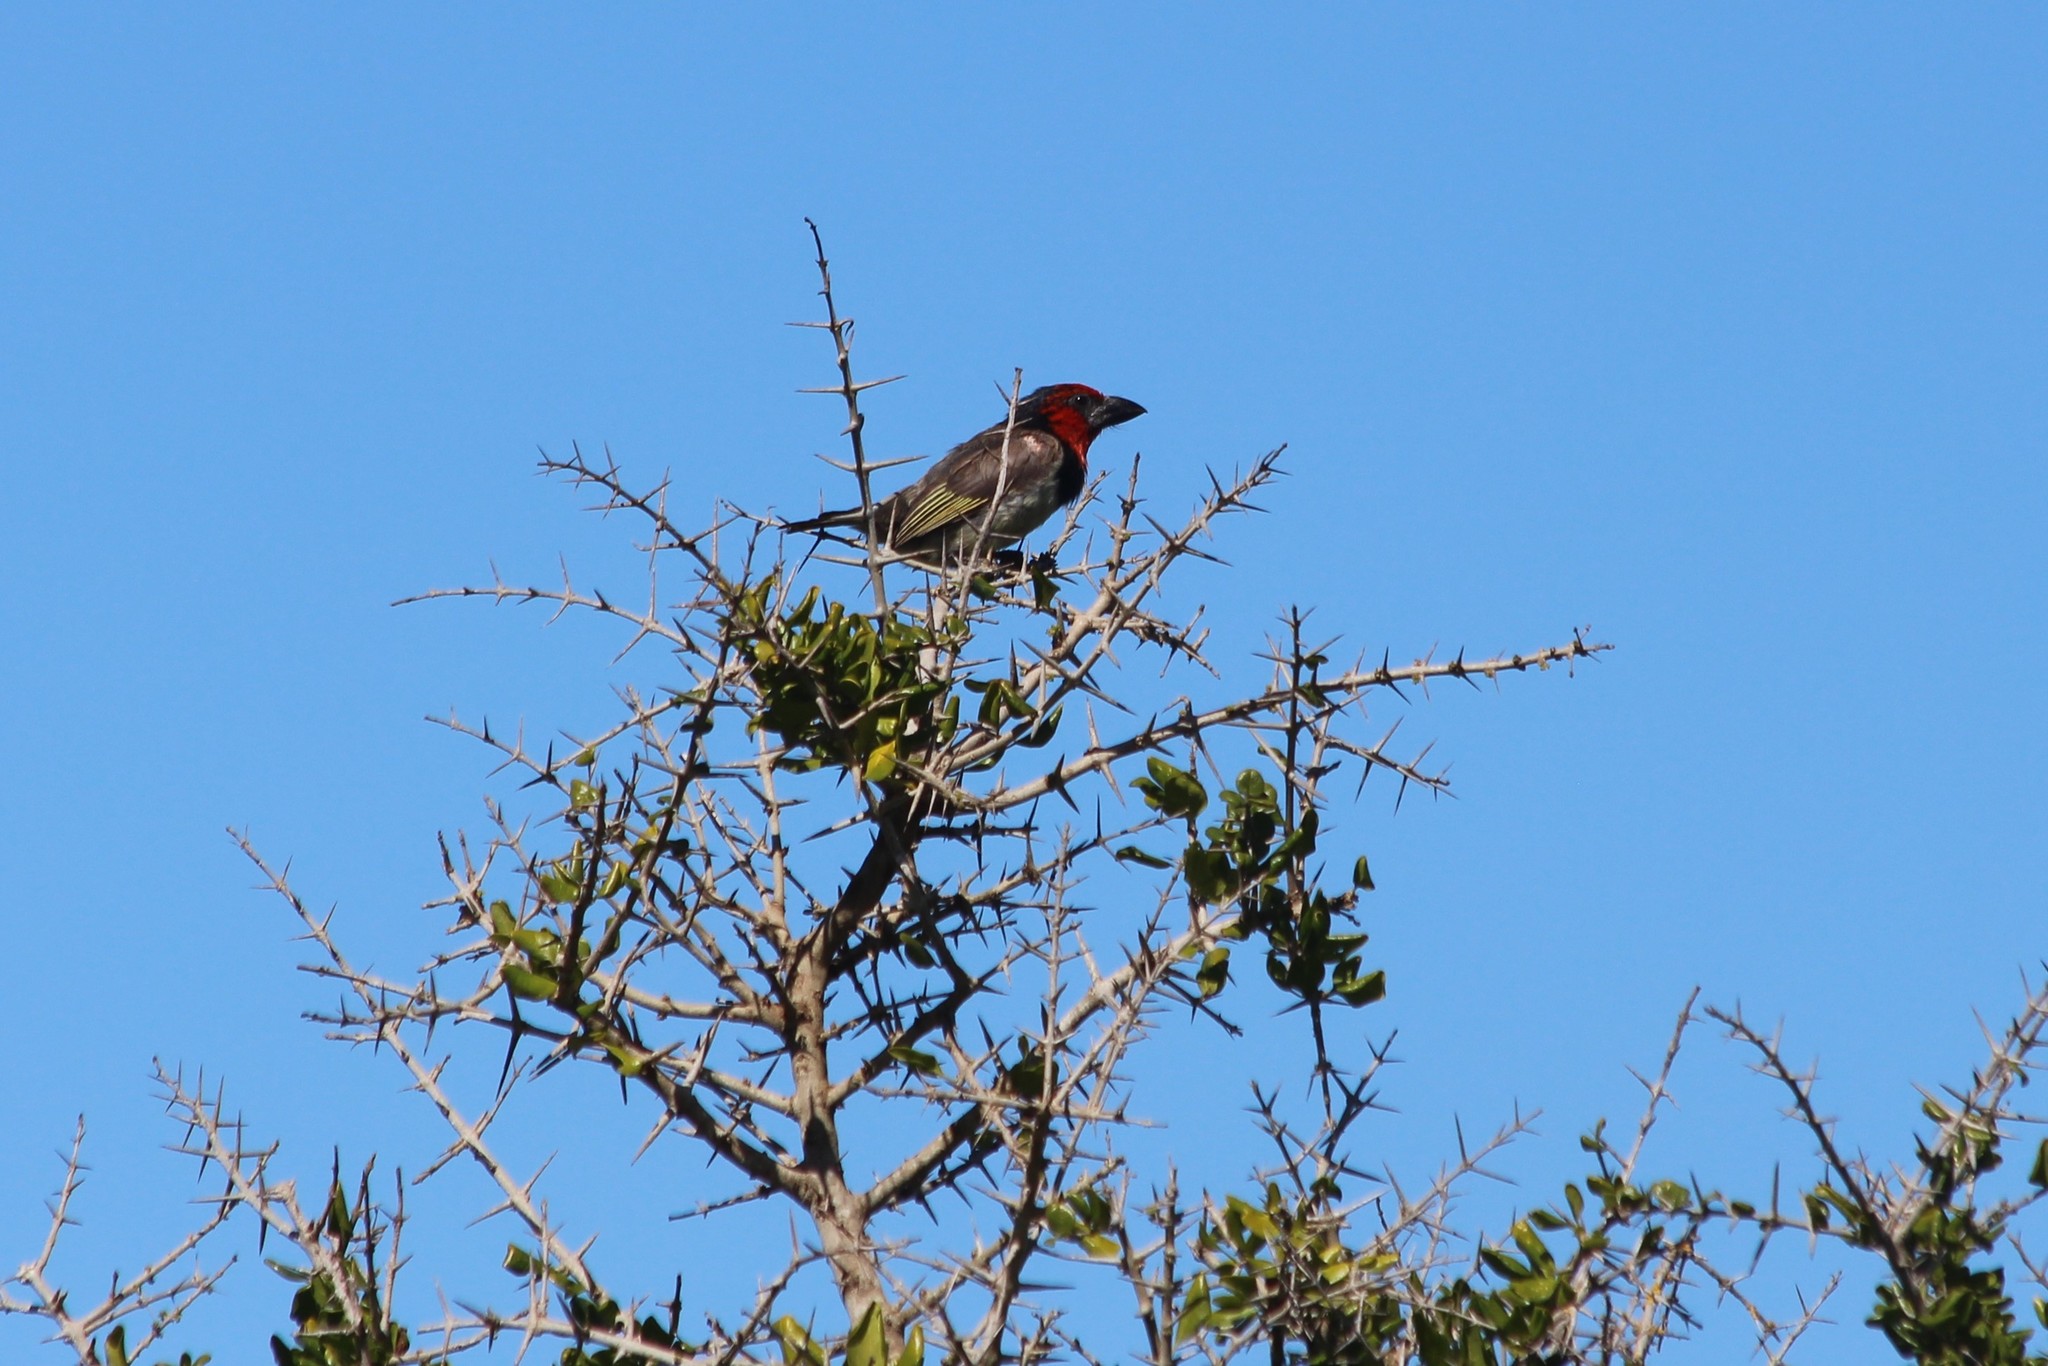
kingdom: Animalia
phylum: Chordata
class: Aves
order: Piciformes
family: Lybiidae
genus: Lybius
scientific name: Lybius torquatus
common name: Black-collared barbet
